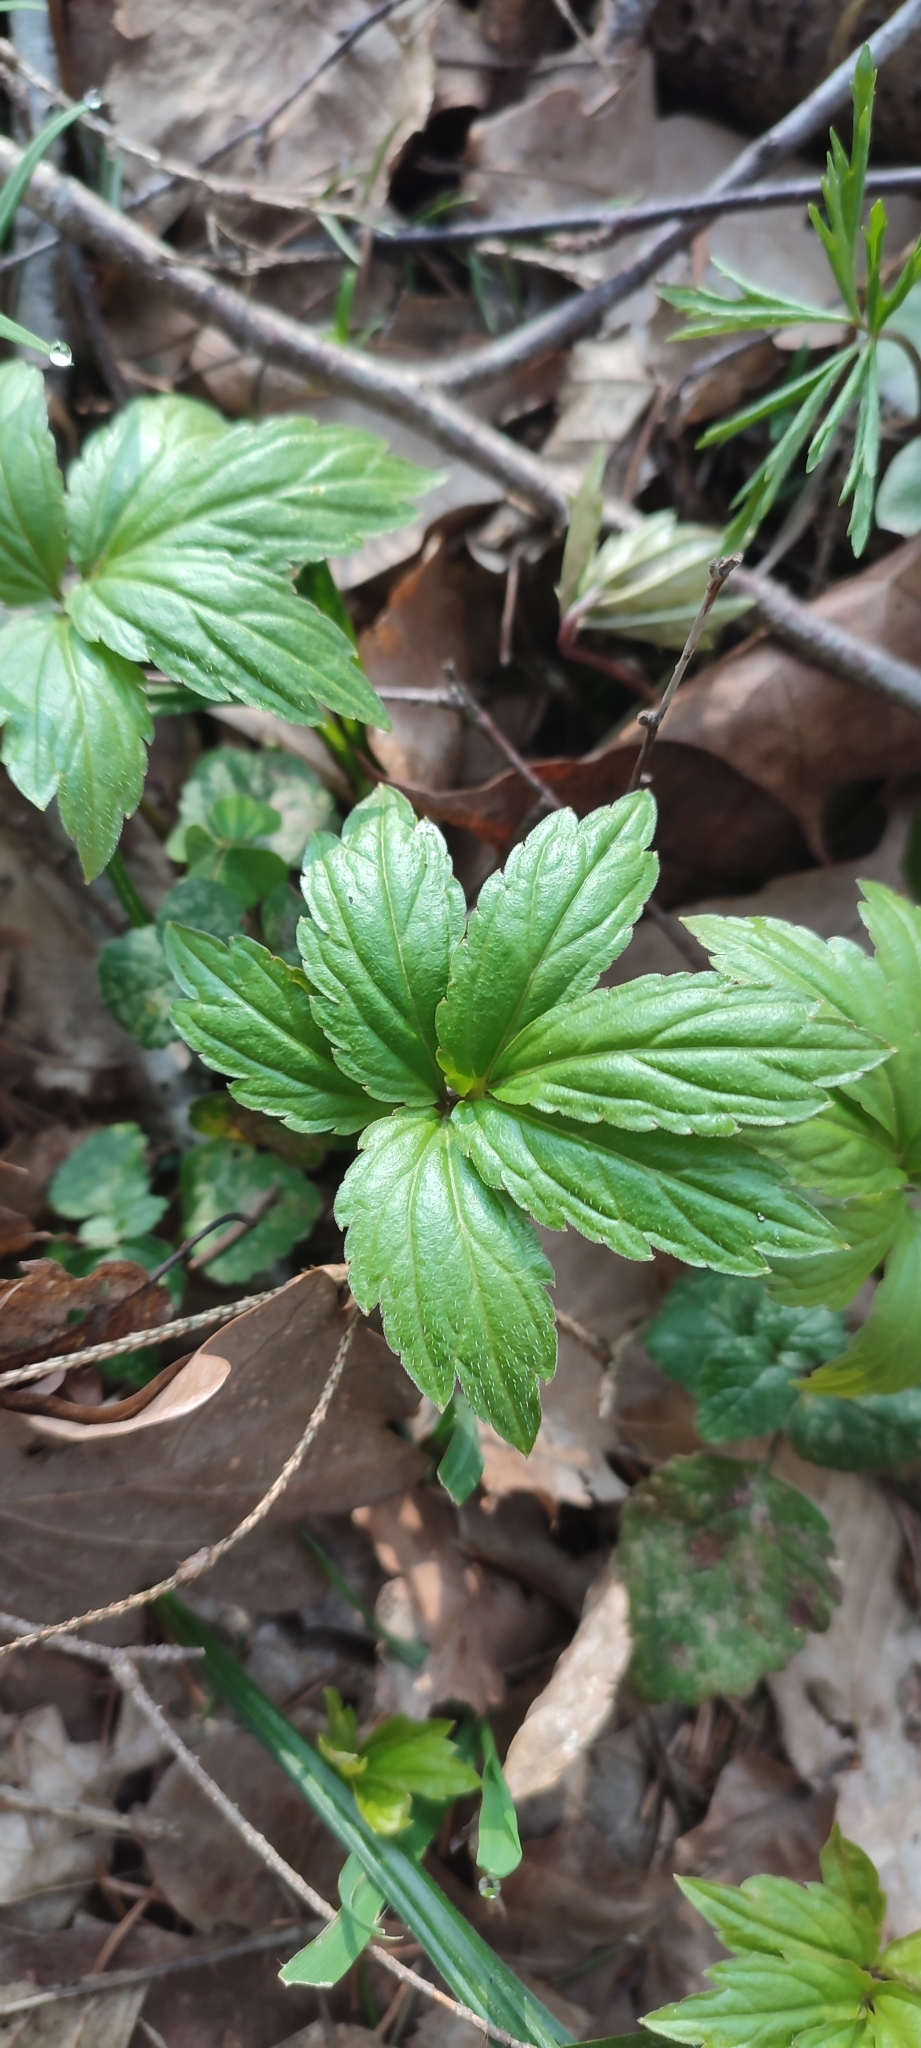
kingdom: Plantae
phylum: Tracheophyta
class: Magnoliopsida
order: Brassicales
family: Brassicaceae
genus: Cardamine
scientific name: Cardamine bulbifera
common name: Coralroot bittercress
